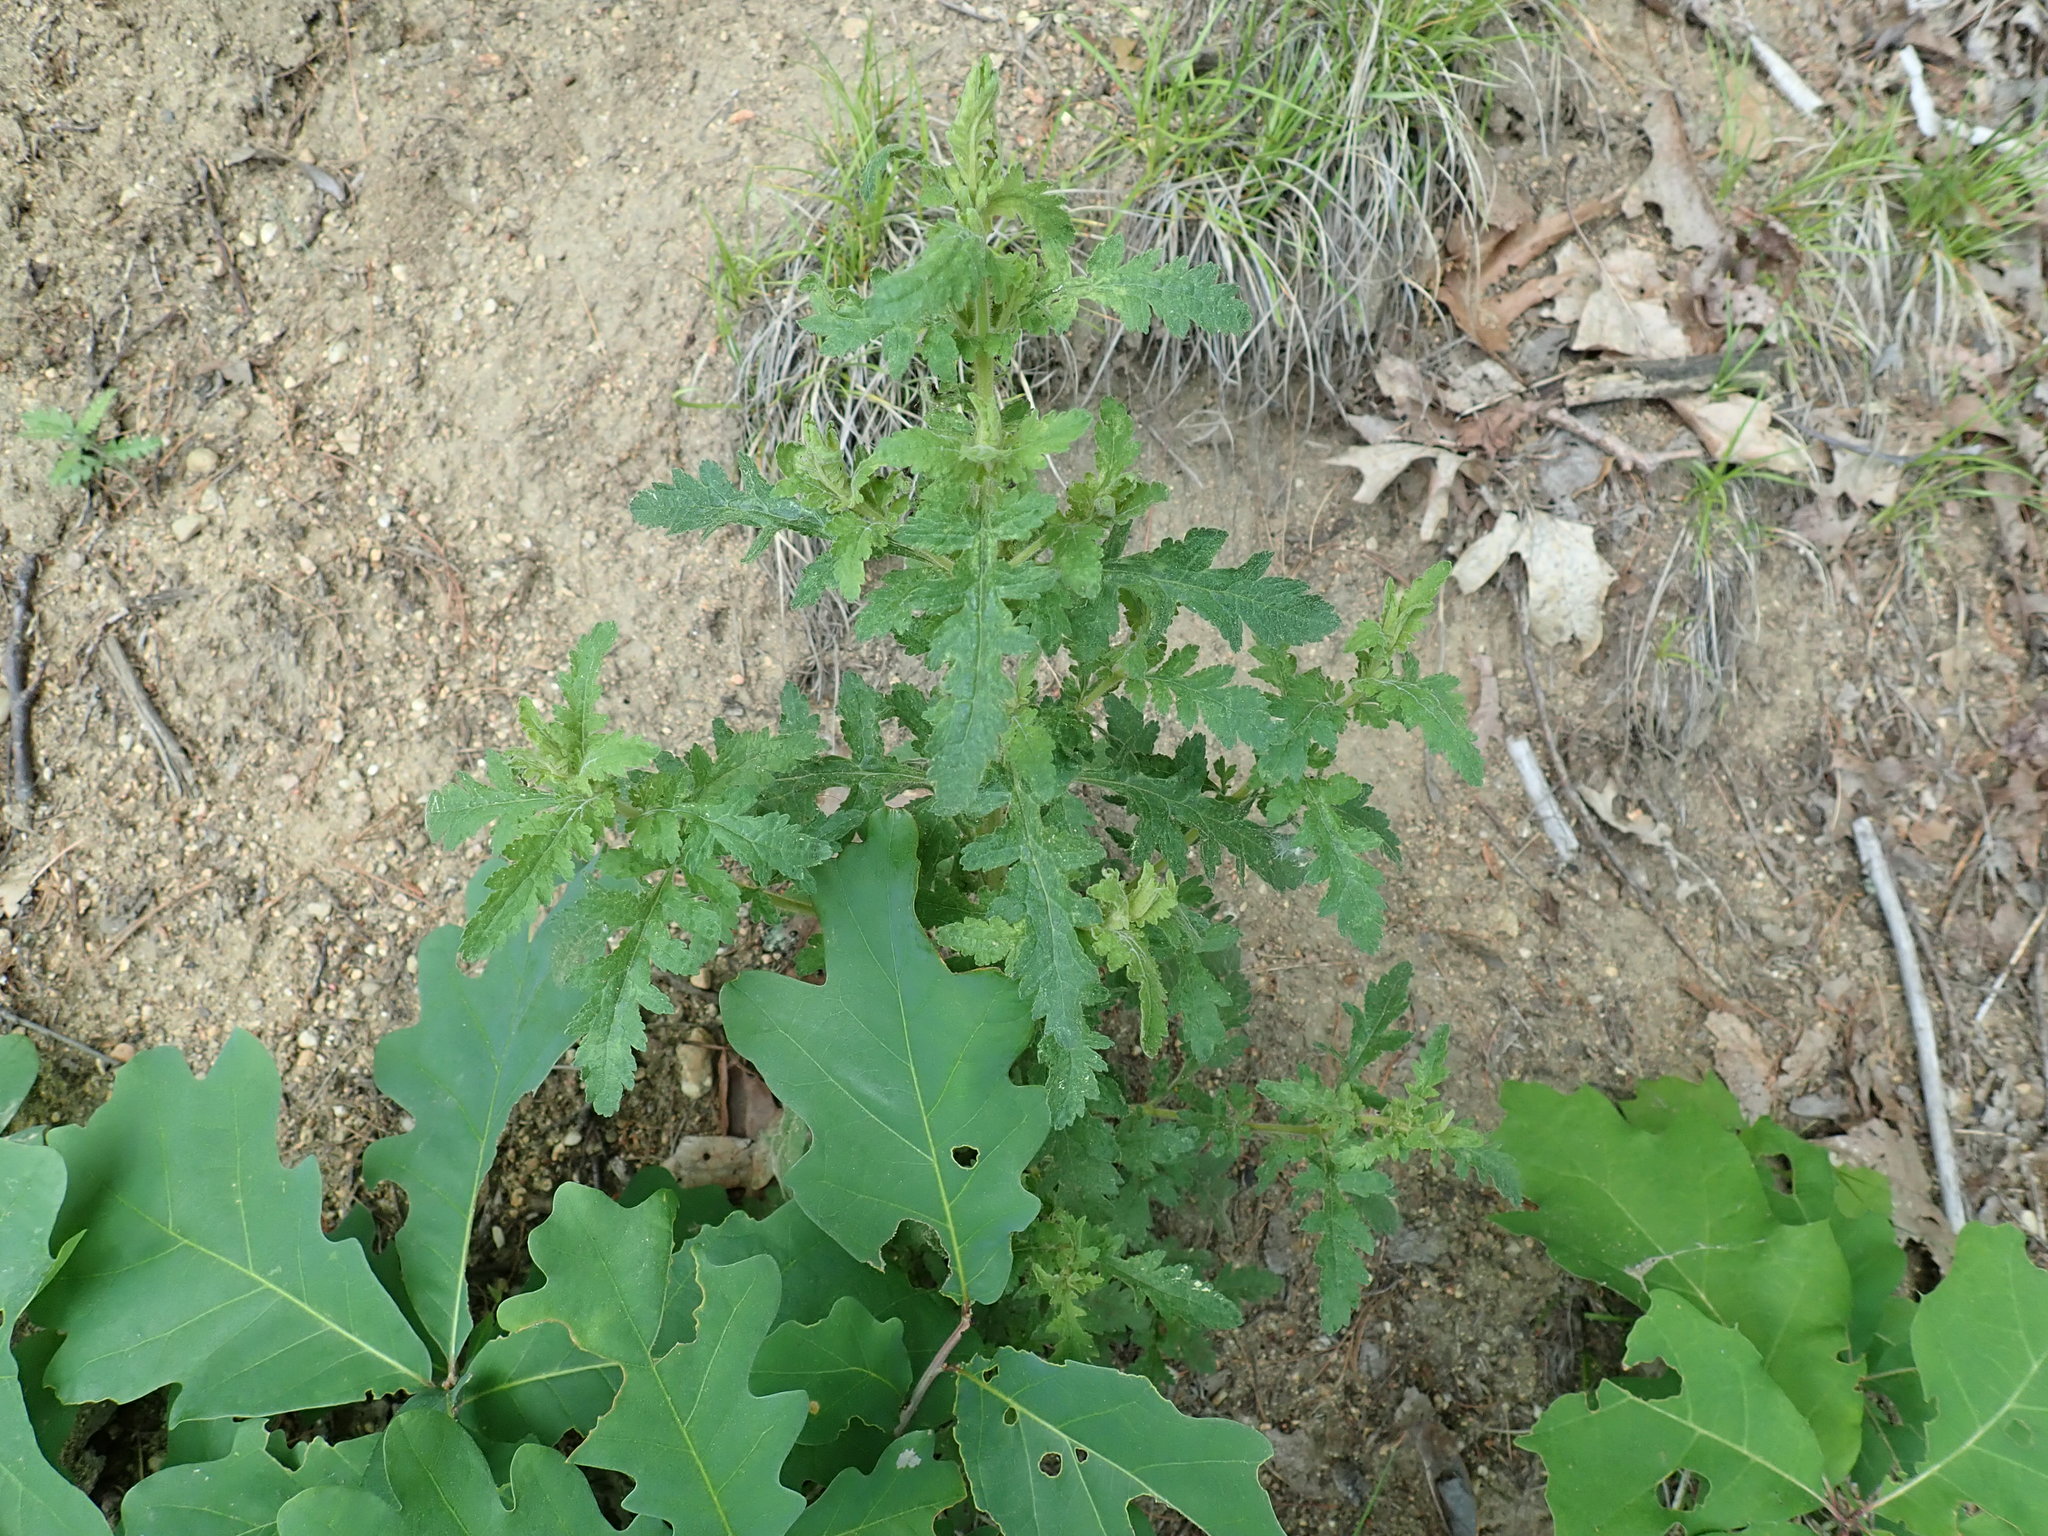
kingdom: Plantae
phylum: Tracheophyta
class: Magnoliopsida
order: Lamiales
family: Orobanchaceae
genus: Aureolaria
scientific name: Aureolaria pedicularia
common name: Annual false foxglove
